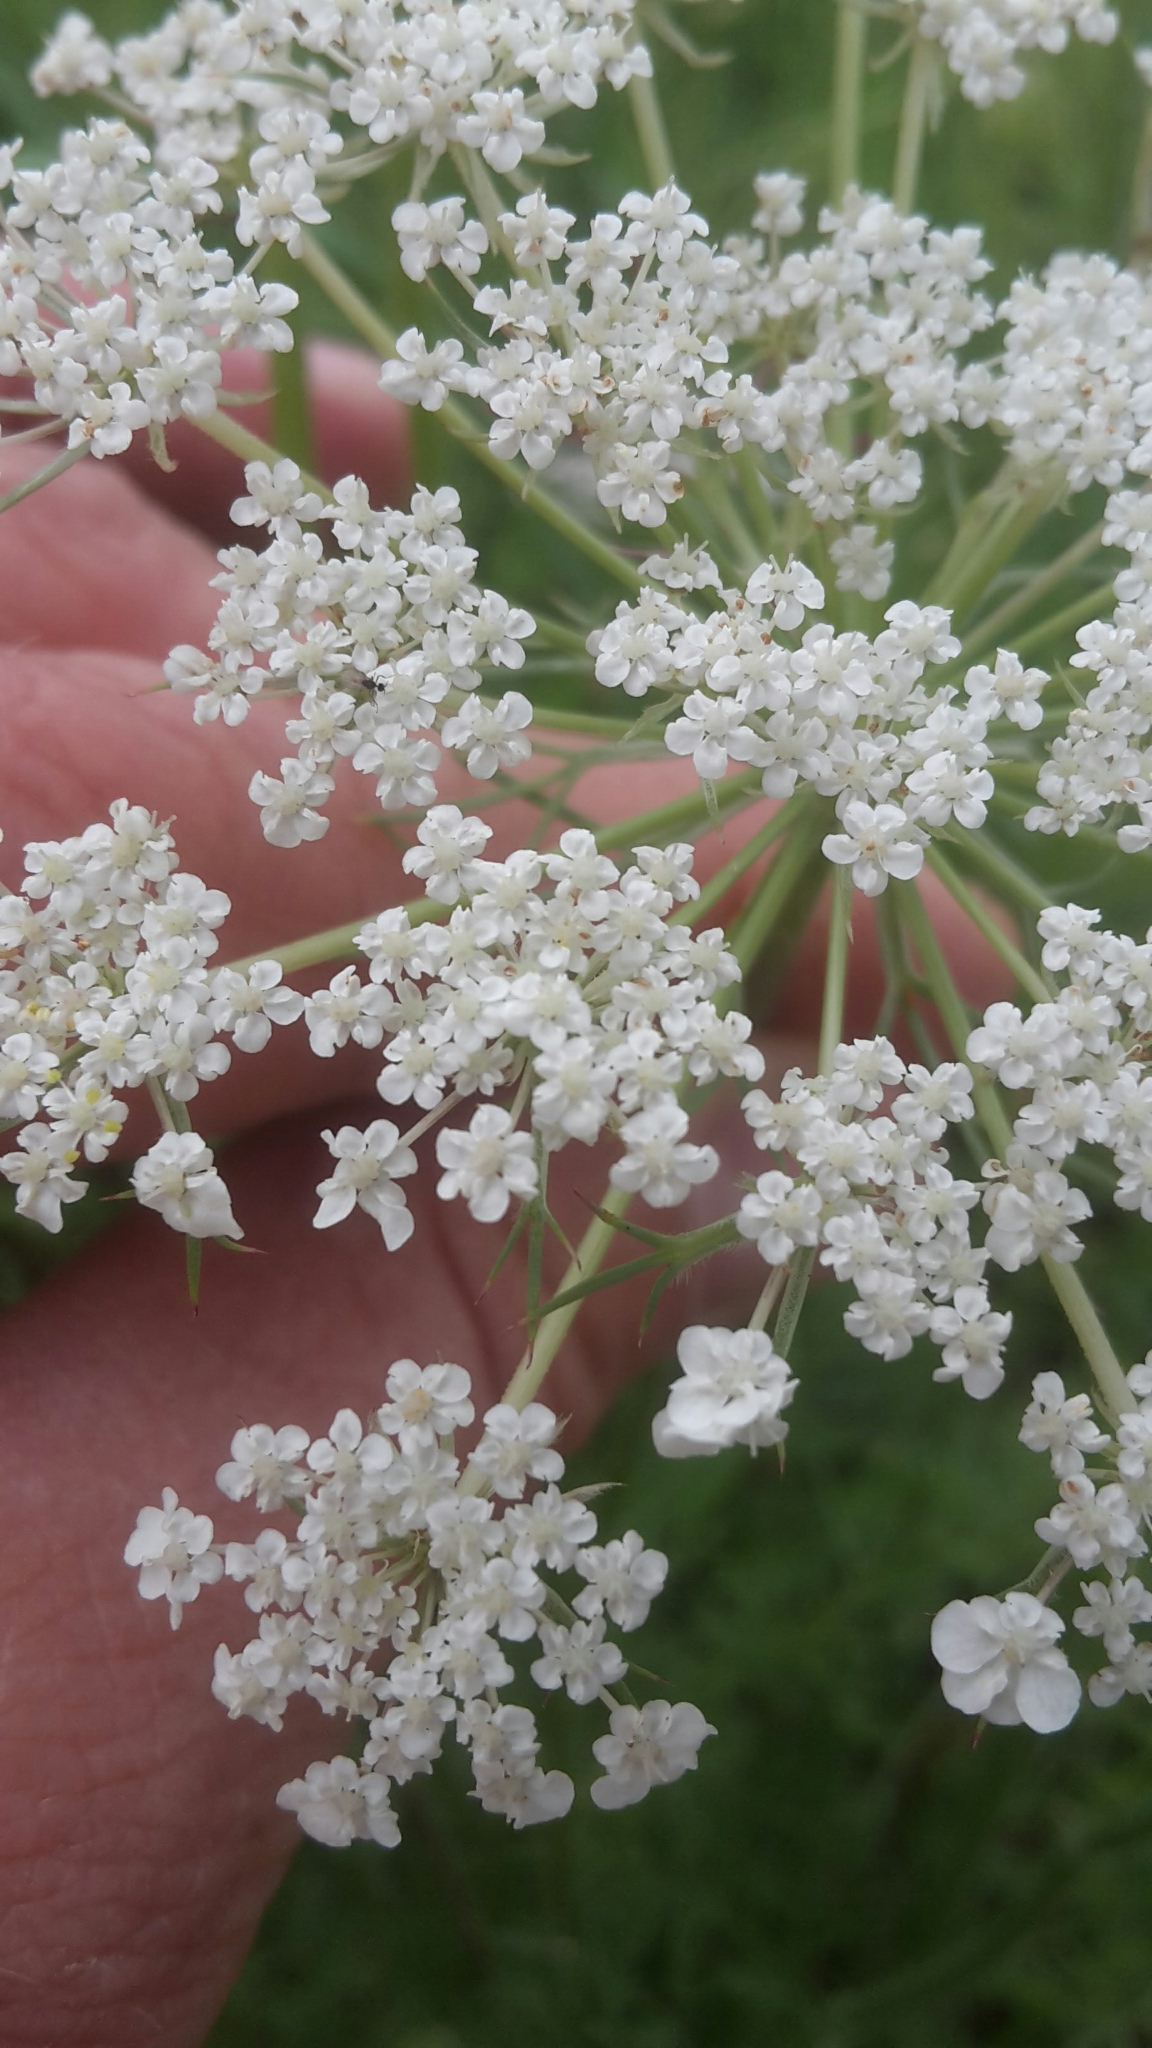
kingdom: Plantae
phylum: Tracheophyta
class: Magnoliopsida
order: Apiales
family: Apiaceae
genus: Daucus
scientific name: Daucus carota
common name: Wild carrot
